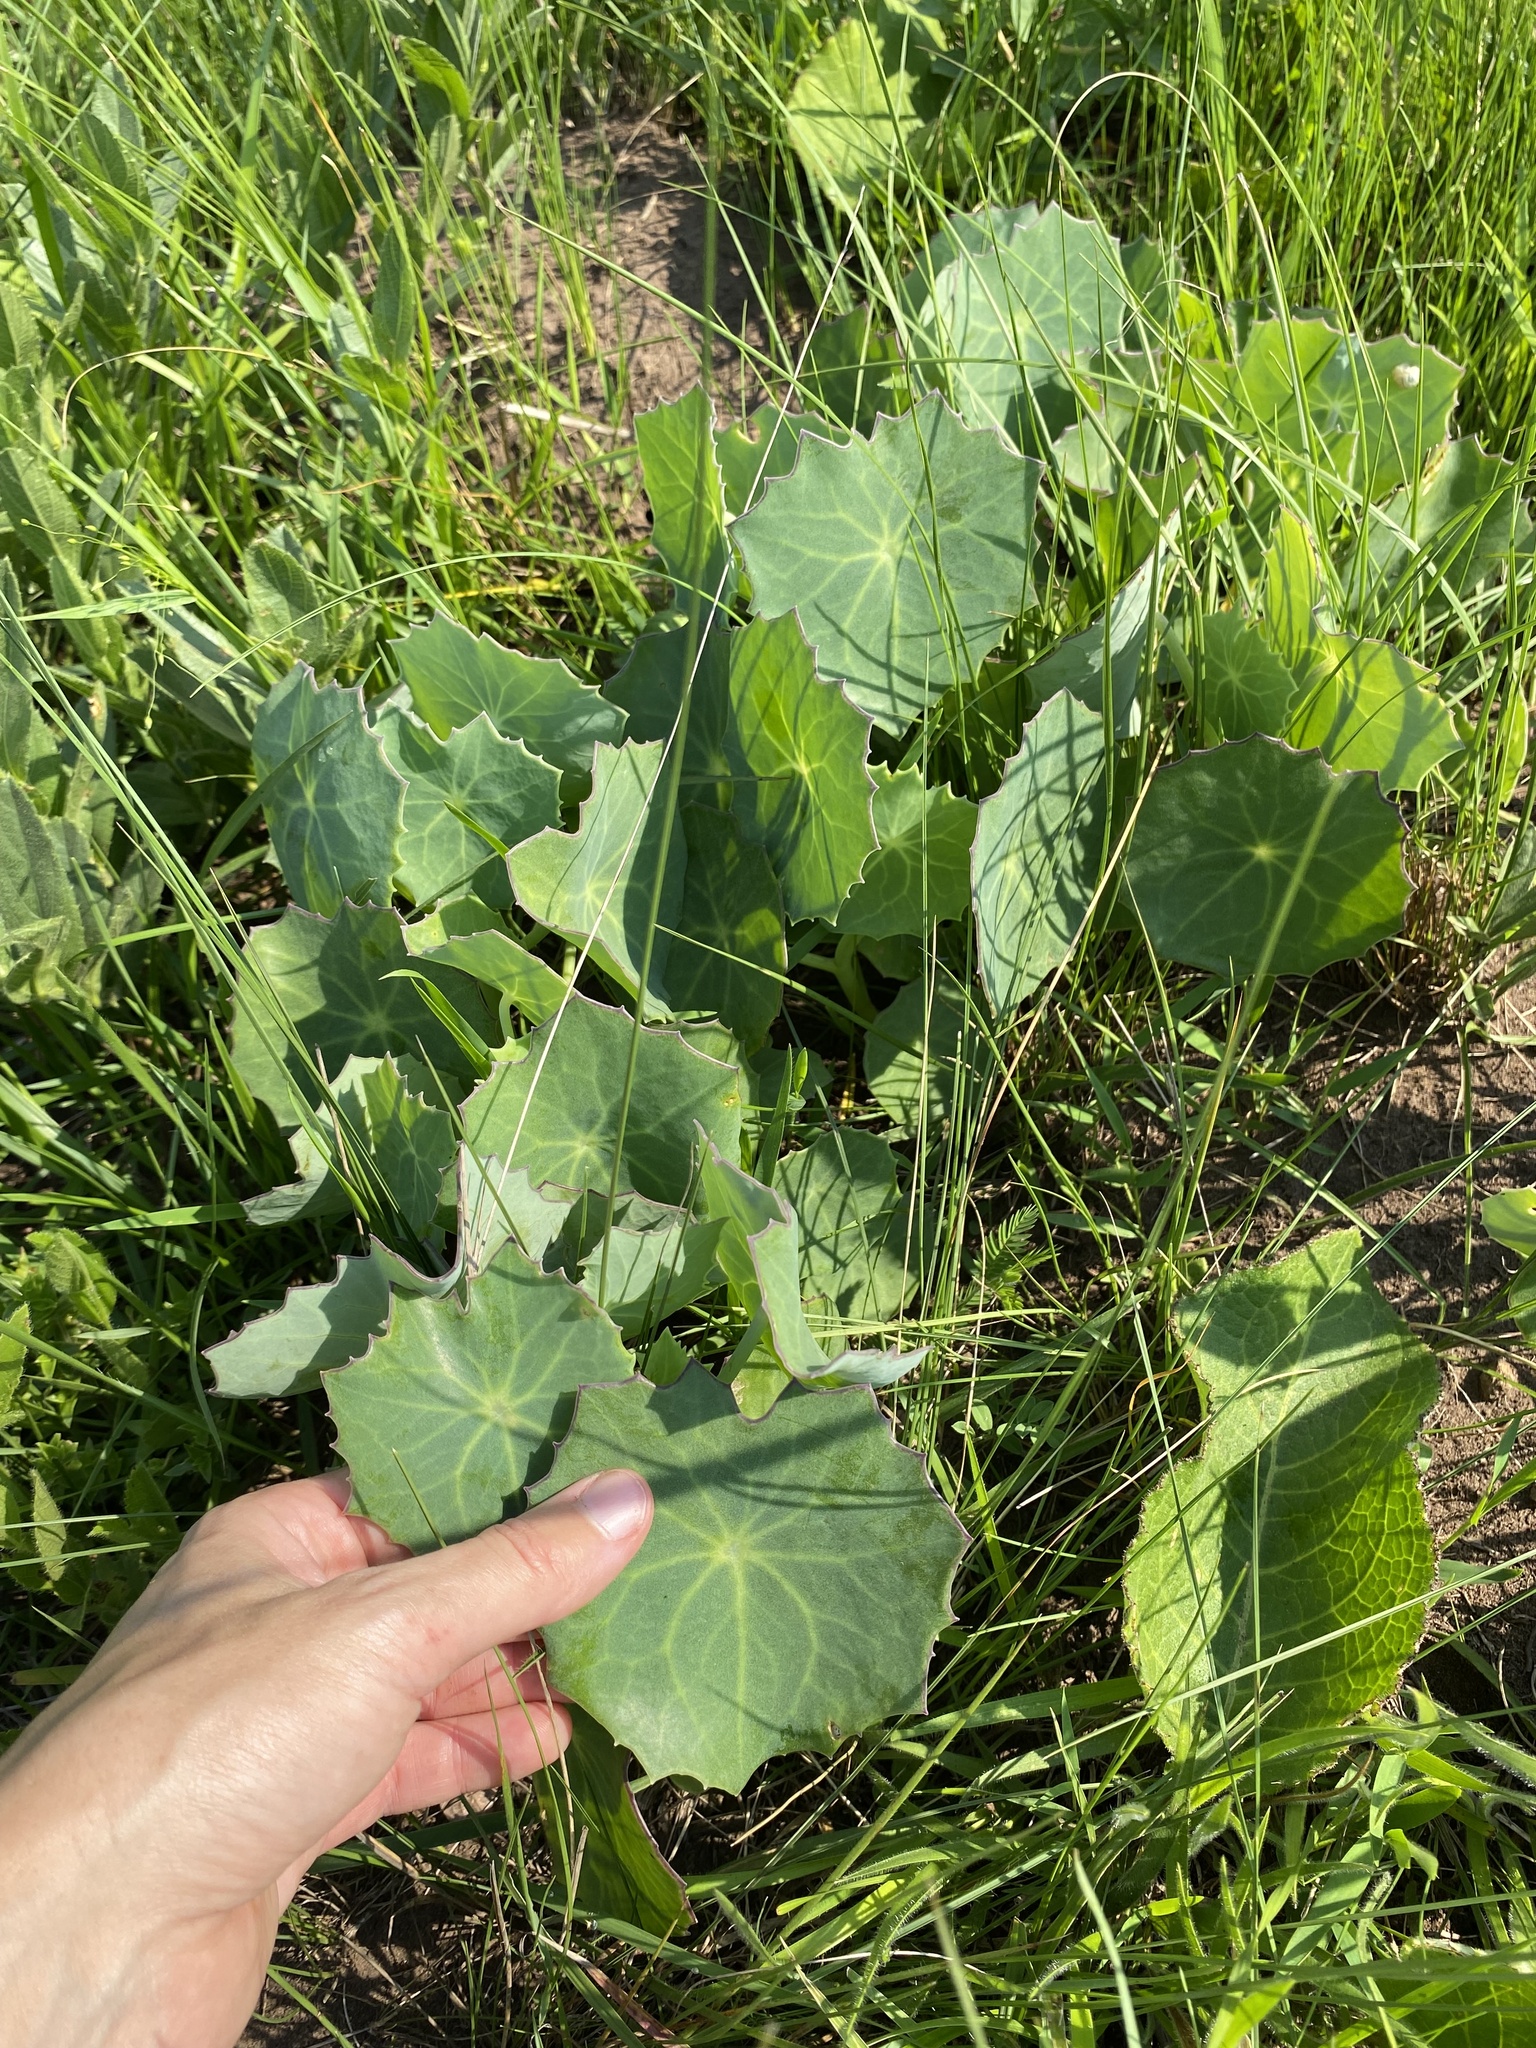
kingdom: Plantae
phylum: Tracheophyta
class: Magnoliopsida
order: Asterales
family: Asteraceae
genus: Senecio
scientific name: Senecio oxyriifolius
